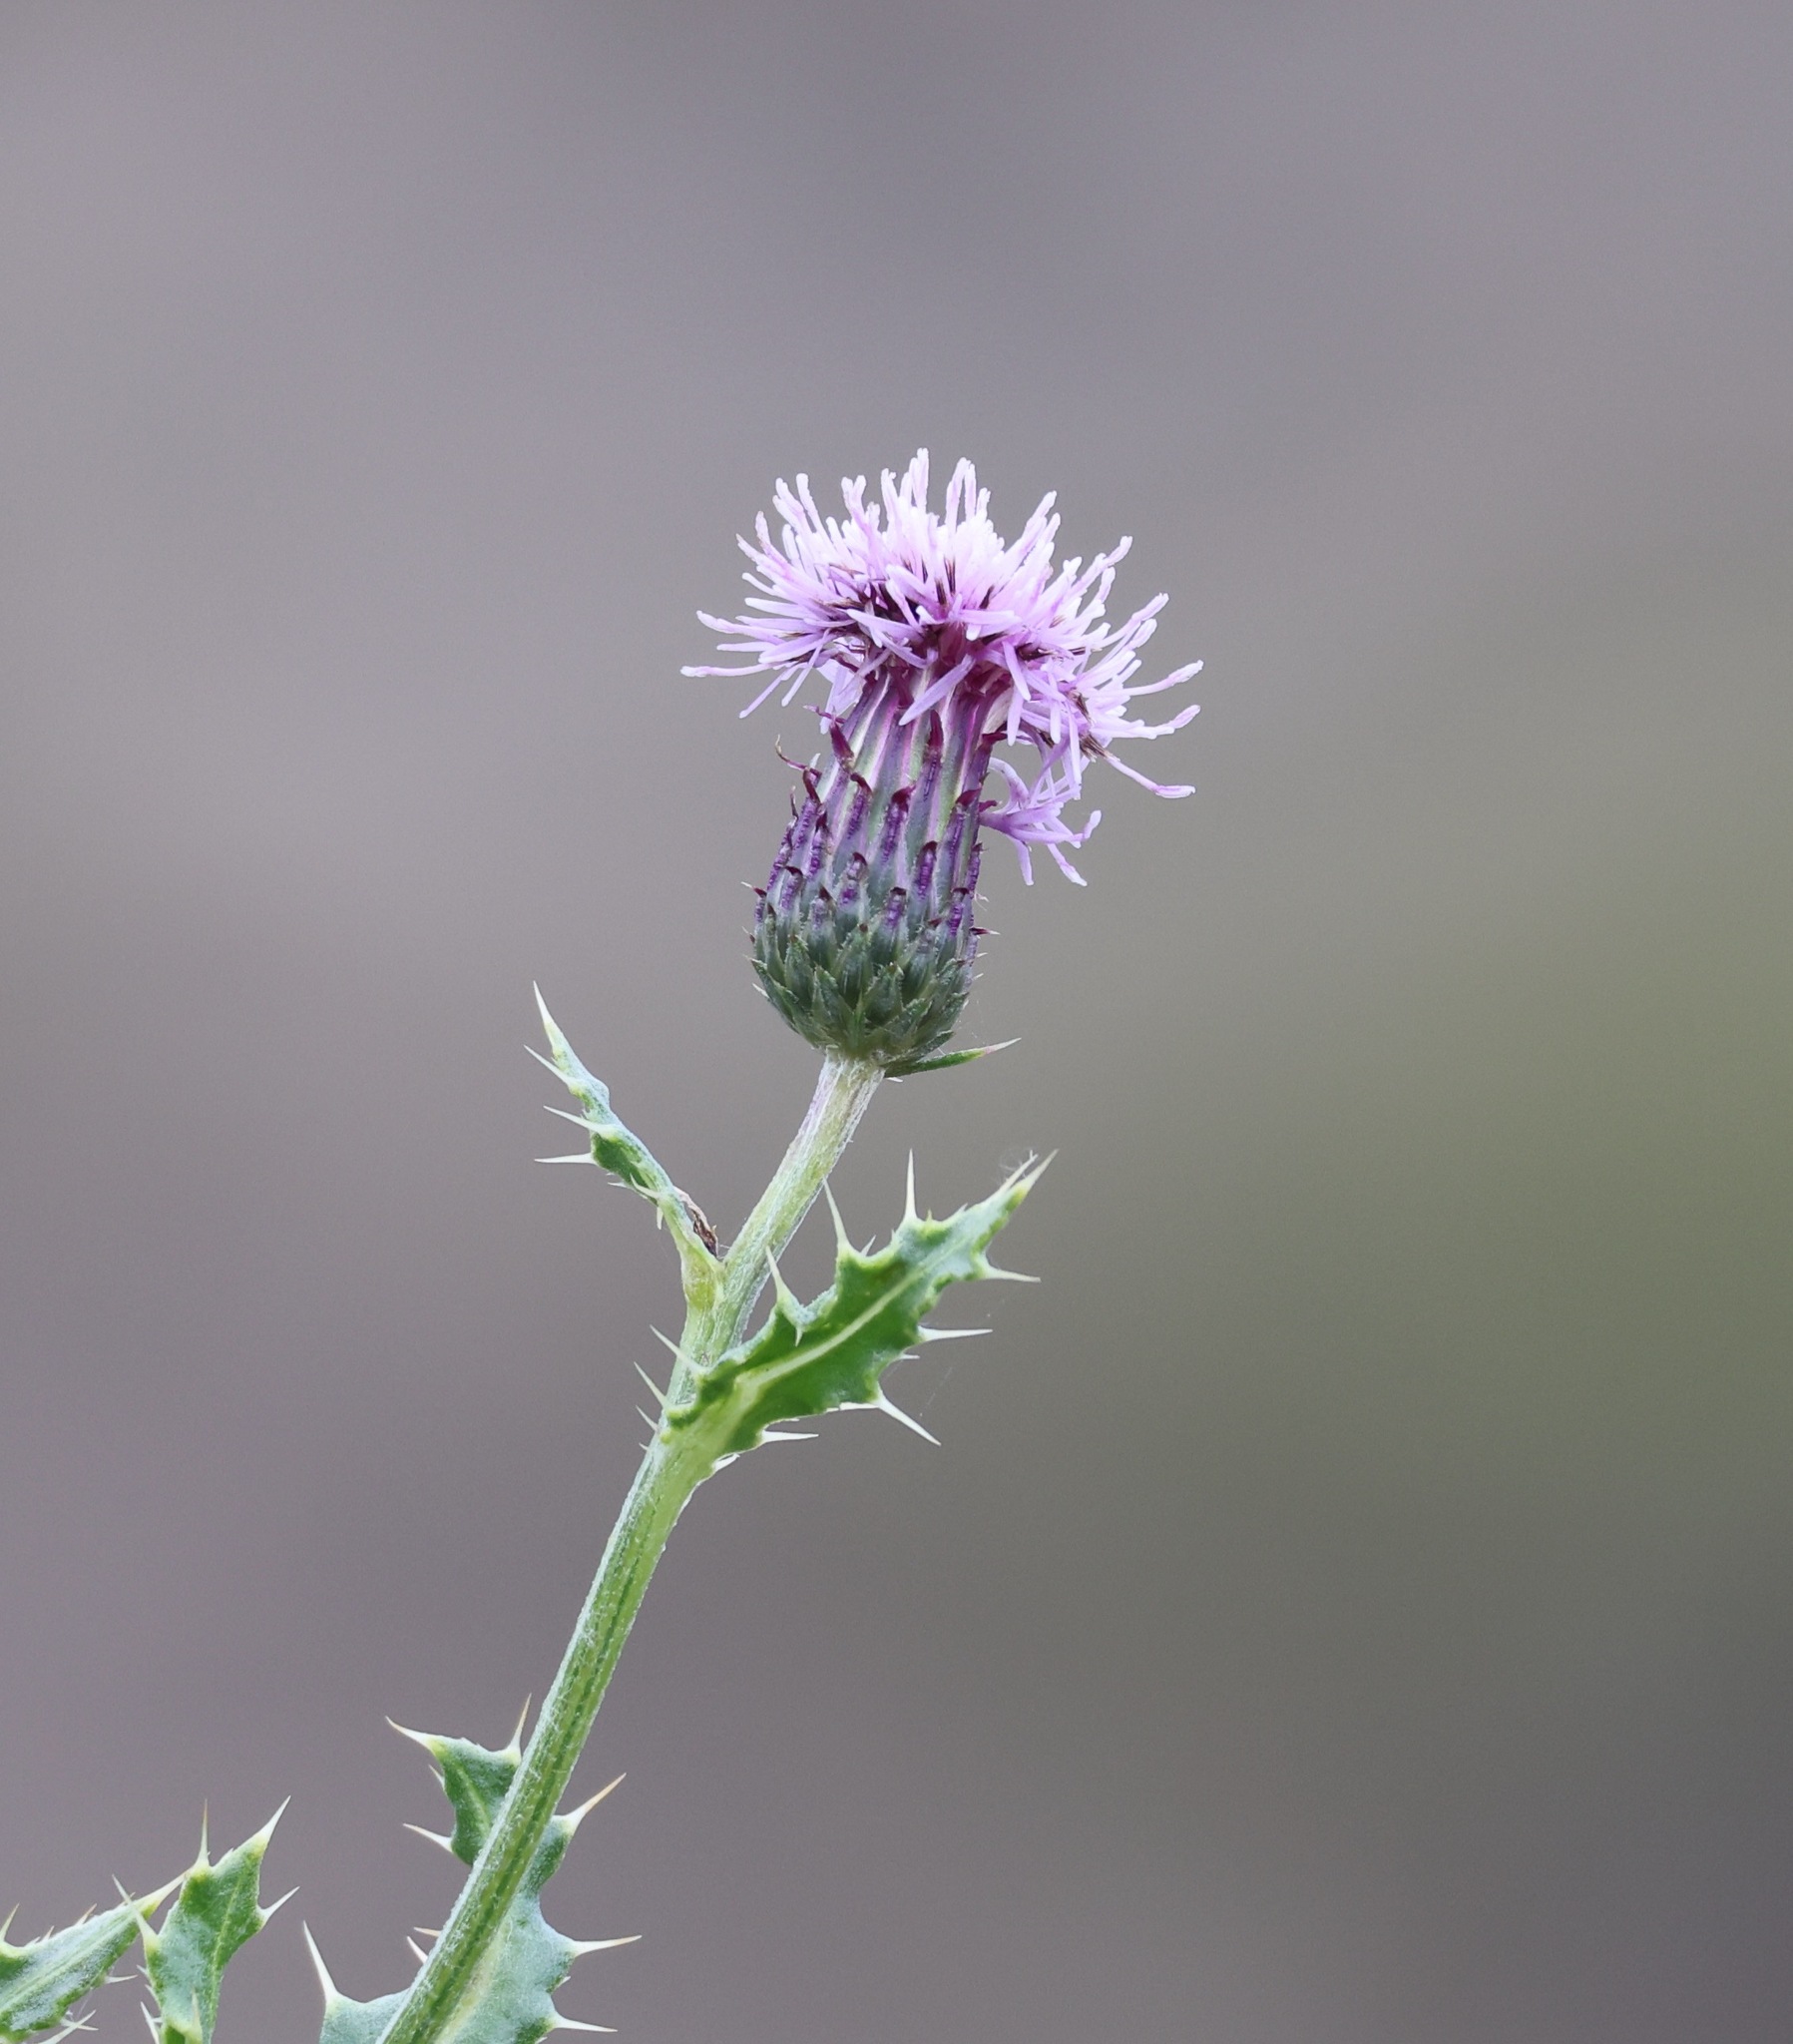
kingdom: Plantae
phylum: Tracheophyta
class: Magnoliopsida
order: Asterales
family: Asteraceae
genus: Cirsium
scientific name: Cirsium arvense
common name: Creeping thistle
